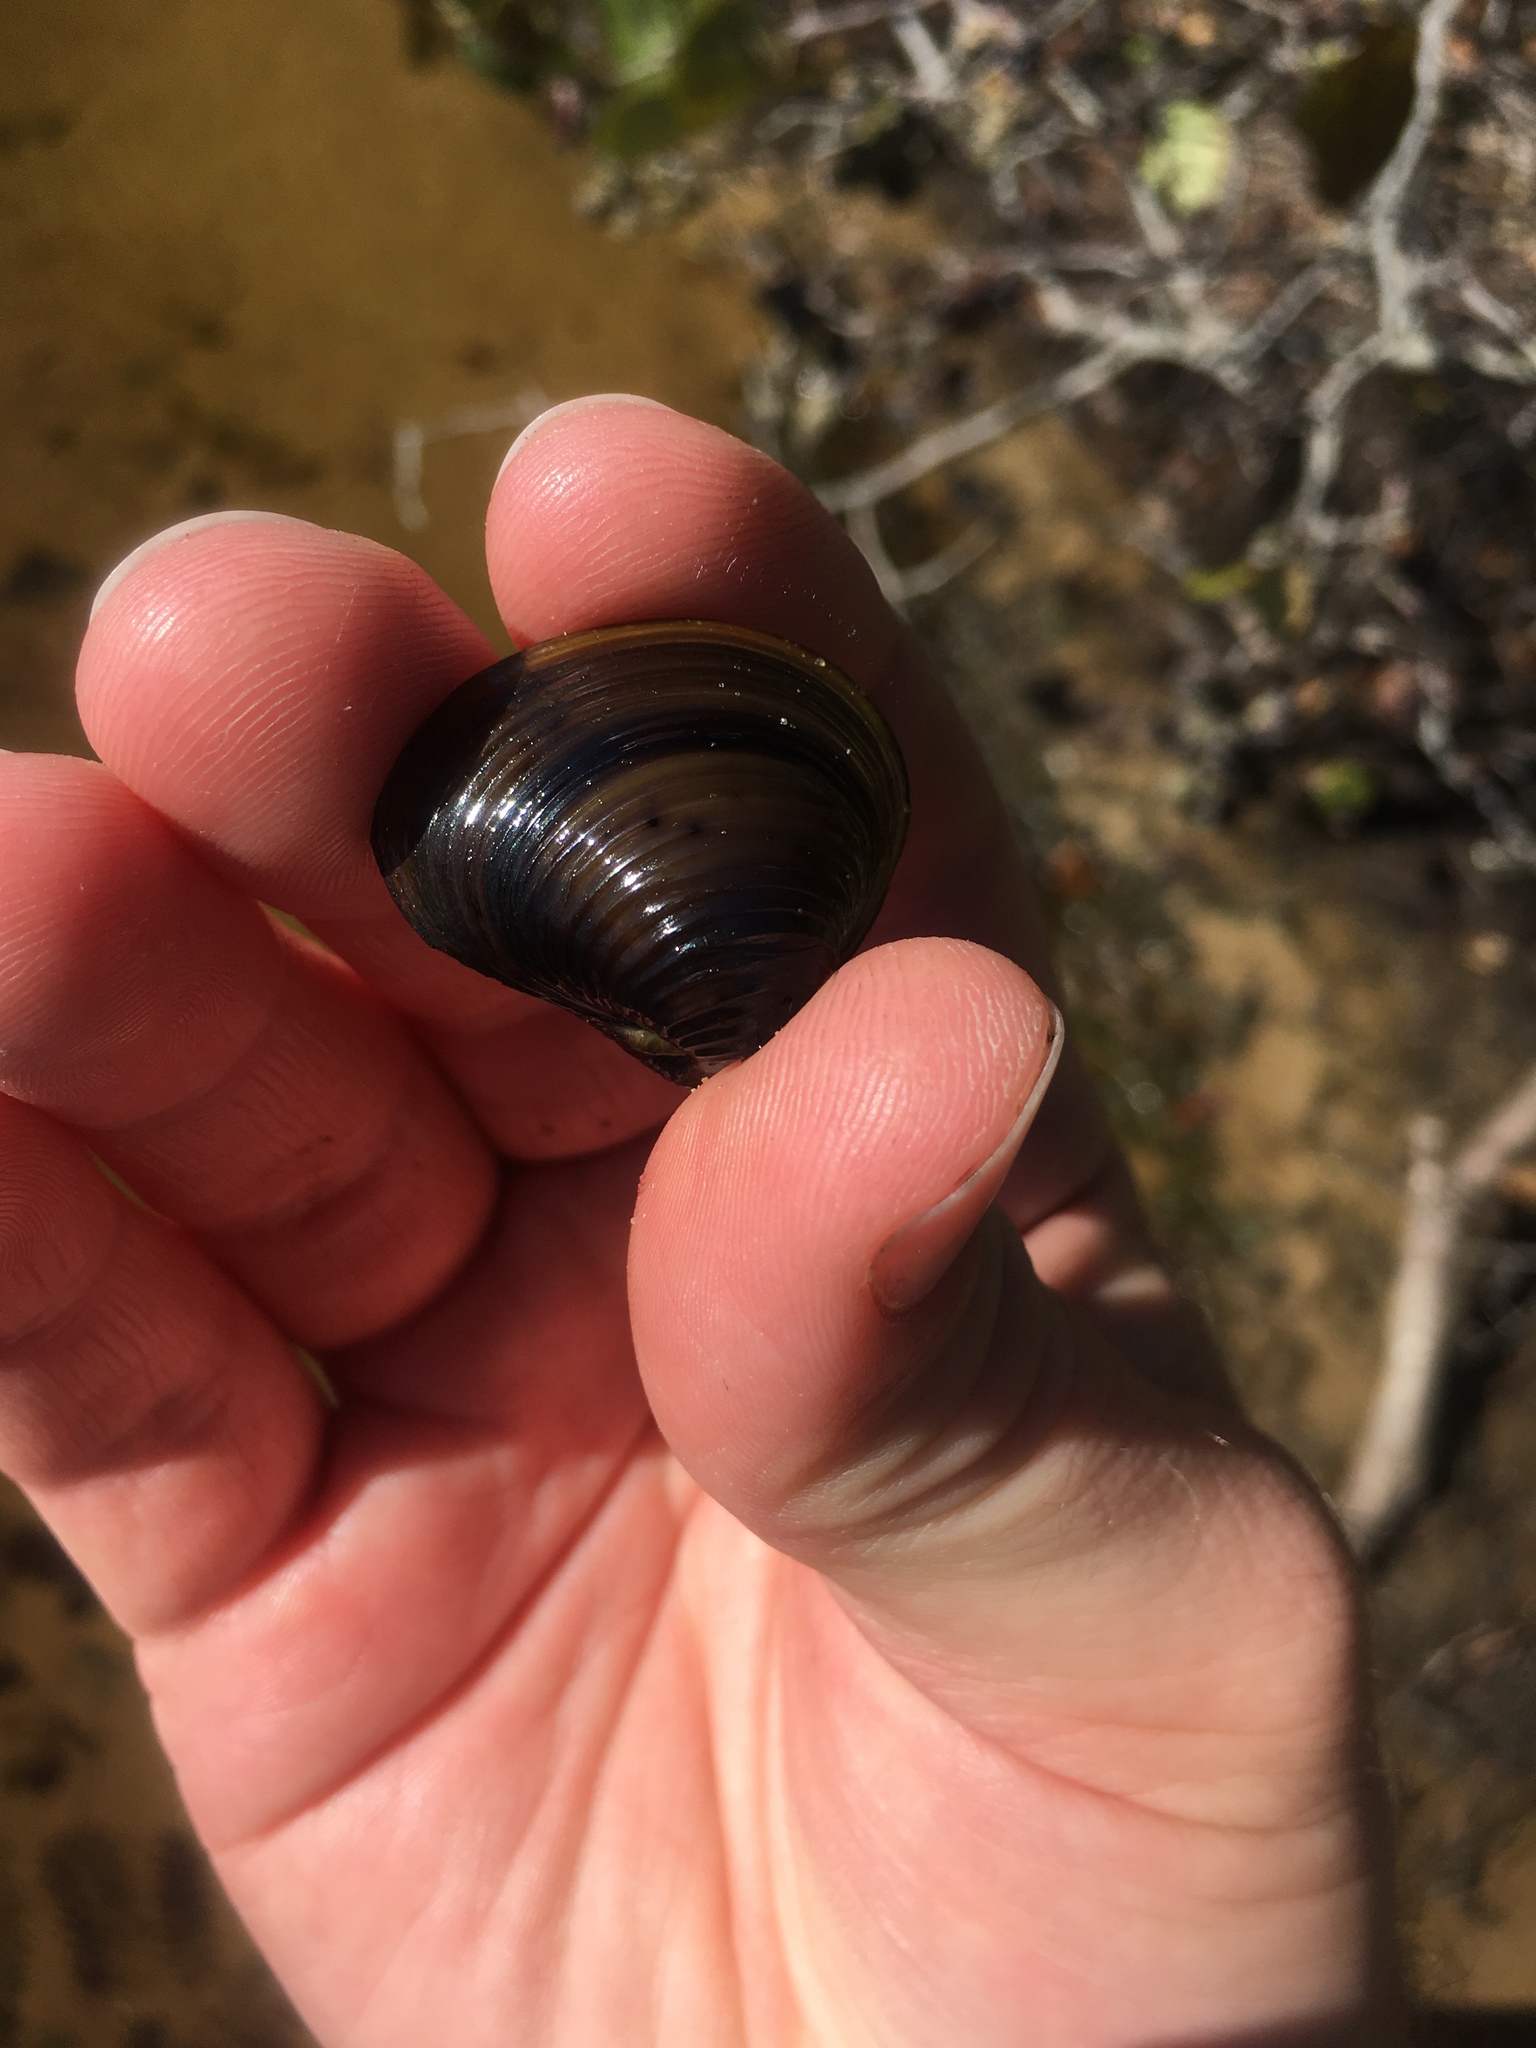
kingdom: Animalia
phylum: Mollusca
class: Bivalvia
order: Venerida
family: Cyrenidae
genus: Corbicula
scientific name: Corbicula fluminea
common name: Asian clam
